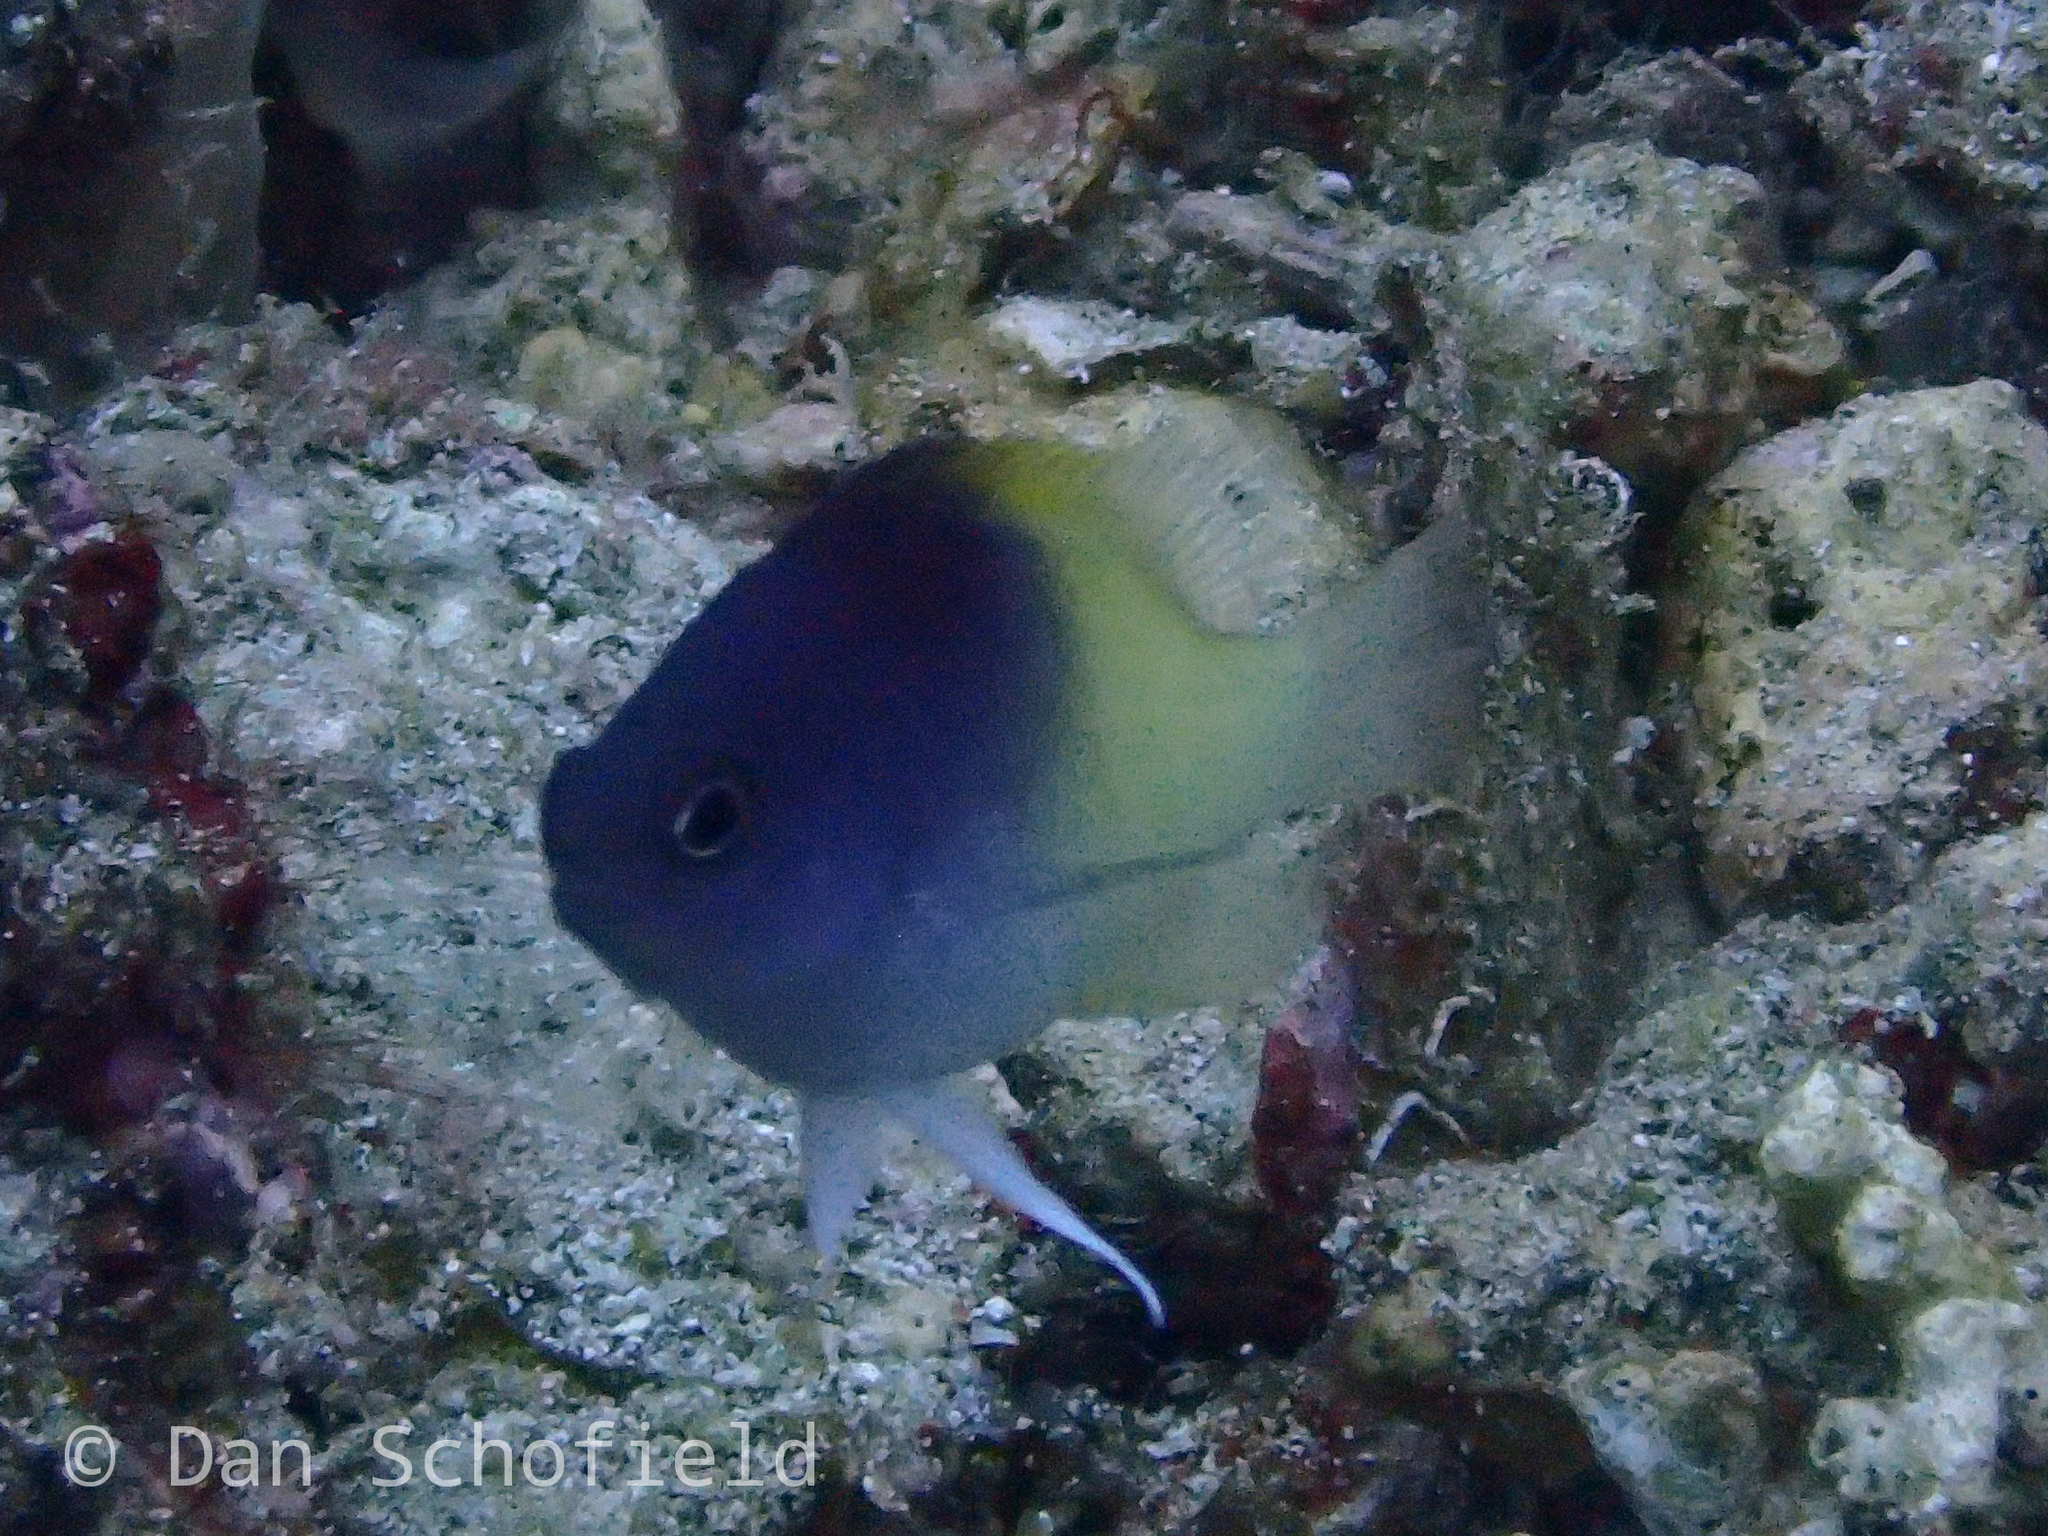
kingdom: Animalia
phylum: Chordata
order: Perciformes
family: Pomacentridae
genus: Chrysiptera
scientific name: Chrysiptera rollandi
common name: Rolland's demoiselle
